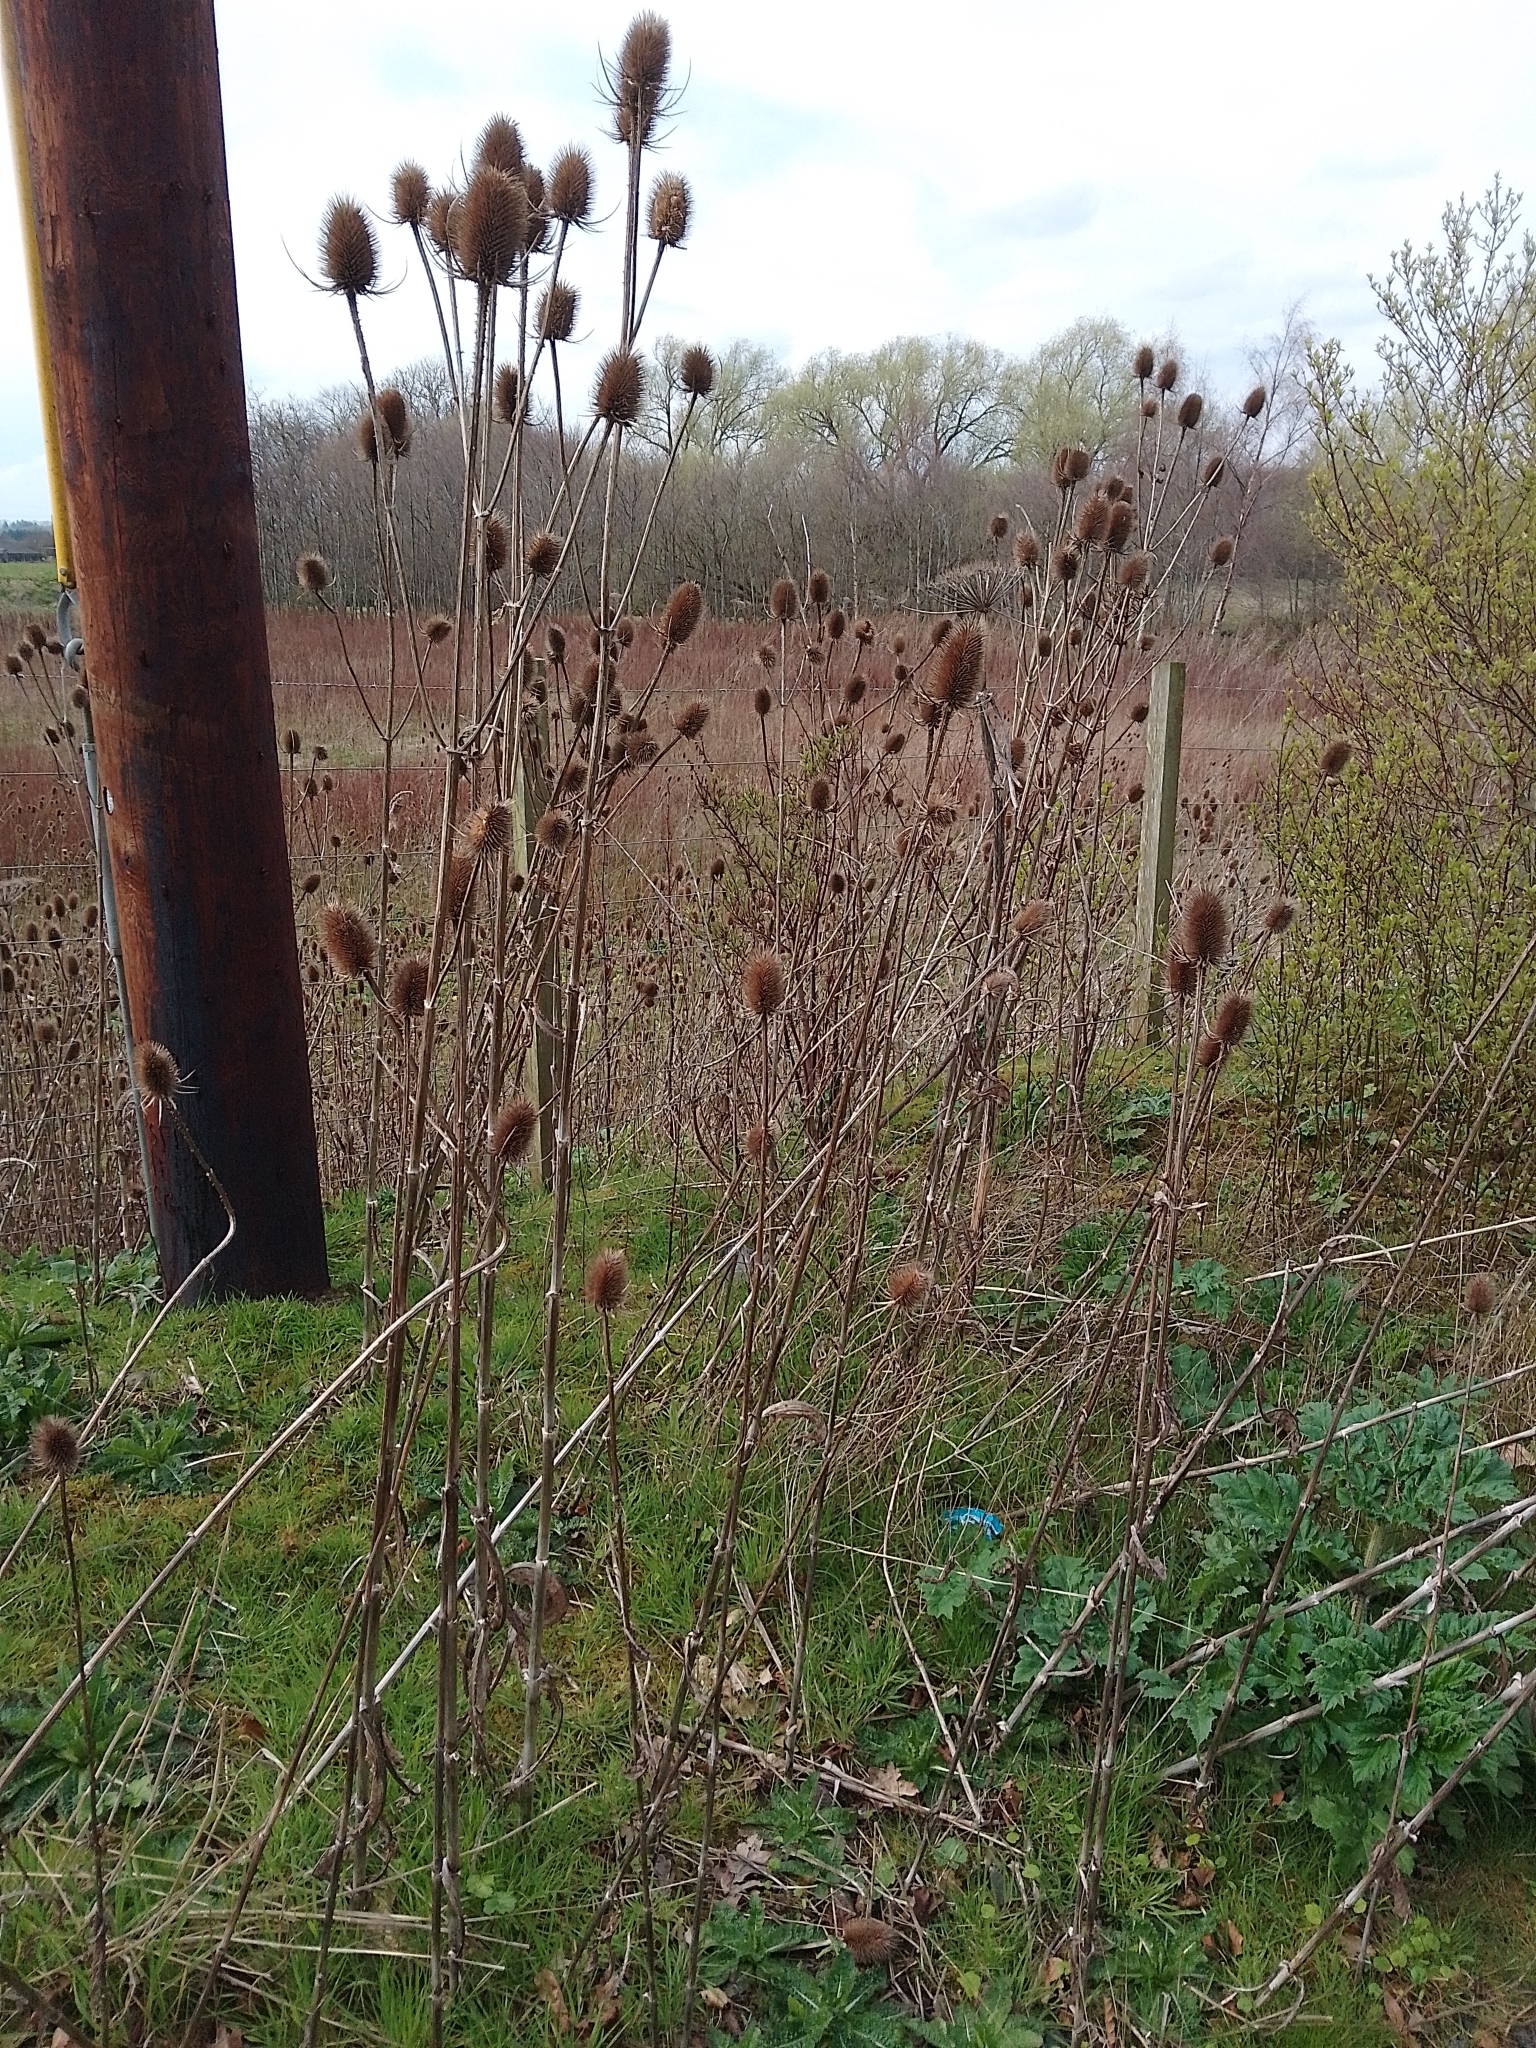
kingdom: Plantae
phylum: Tracheophyta
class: Magnoliopsida
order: Dipsacales
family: Caprifoliaceae
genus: Dipsacus
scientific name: Dipsacus fullonum
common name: Teasel
